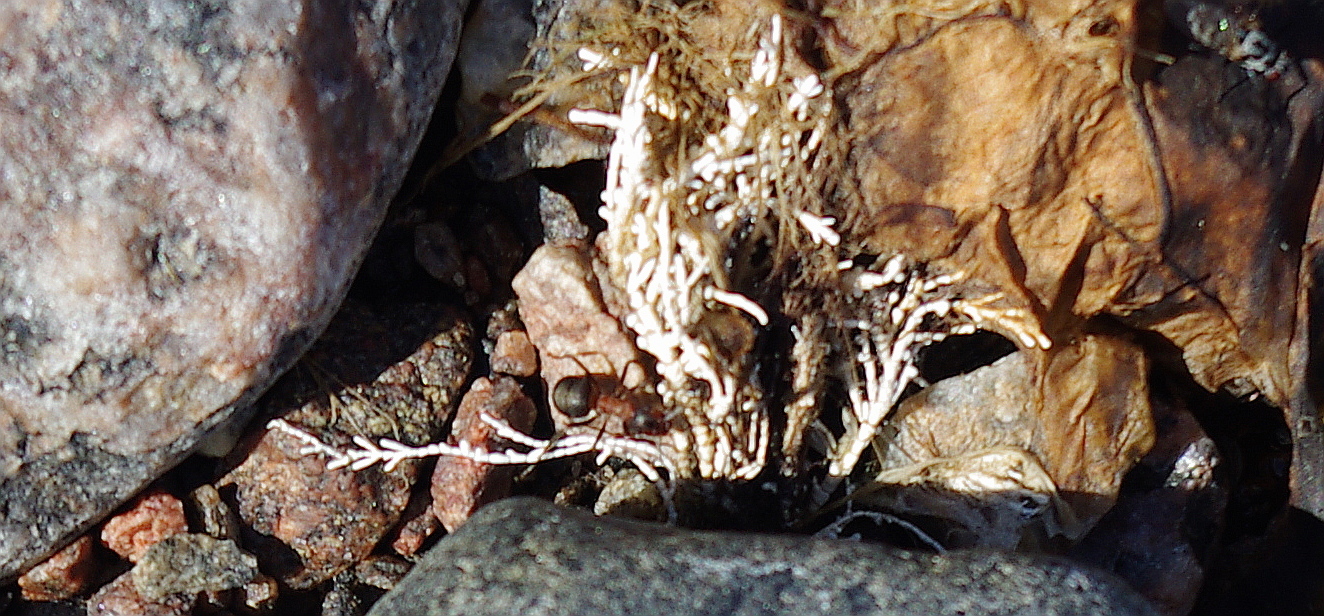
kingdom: Plantae
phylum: Rhodophyta
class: Florideophyceae
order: Corallinales
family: Corallinaceae
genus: Corallina
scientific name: Corallina officinalis
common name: Coral weed
